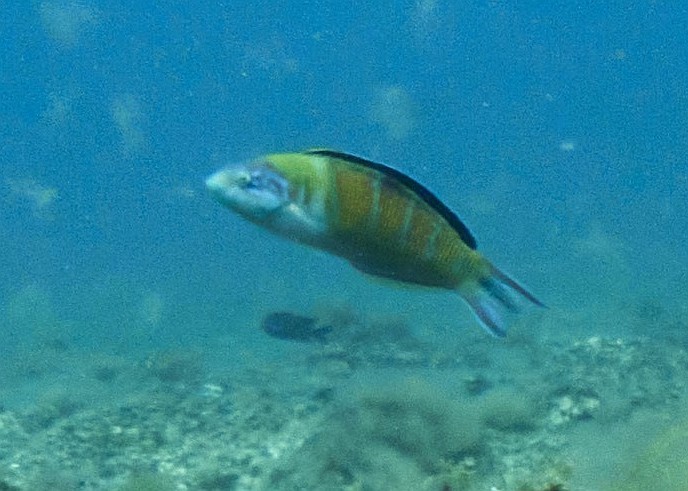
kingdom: Animalia
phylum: Chordata
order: Perciformes
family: Labridae
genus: Thalassoma
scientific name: Thalassoma pavo
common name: Ornate wrasse
